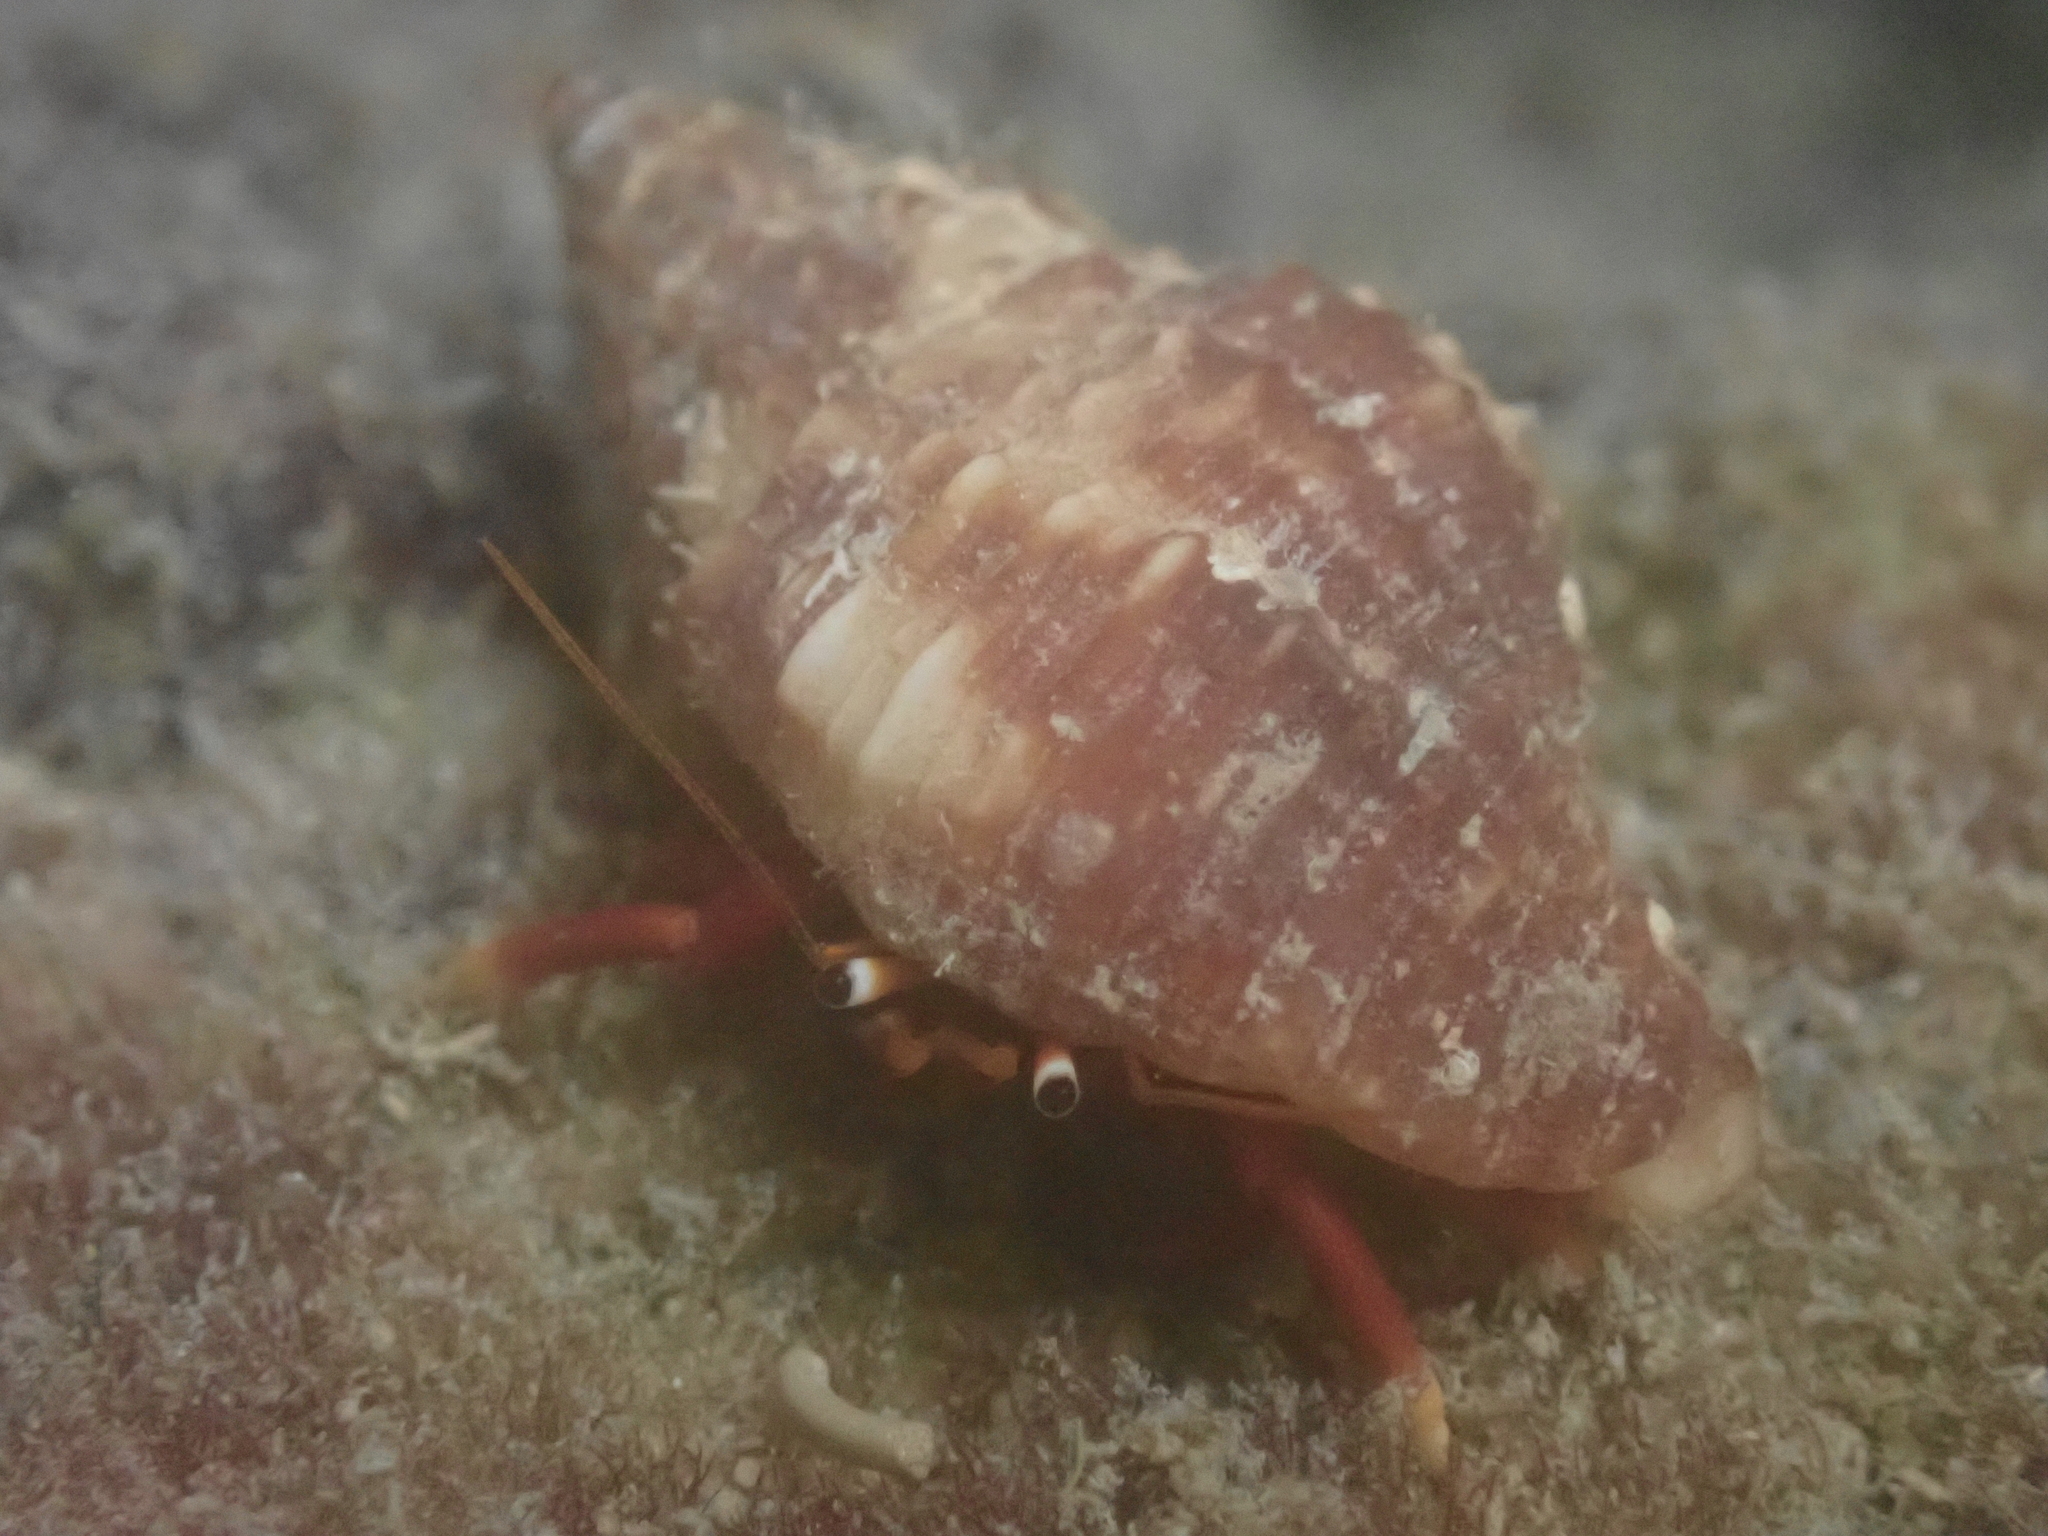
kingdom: Animalia
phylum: Arthropoda
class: Malacostraca
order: Decapoda
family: Diogenidae
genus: Calcinus
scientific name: Calcinus tibicen
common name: Orangeclaw hermit
